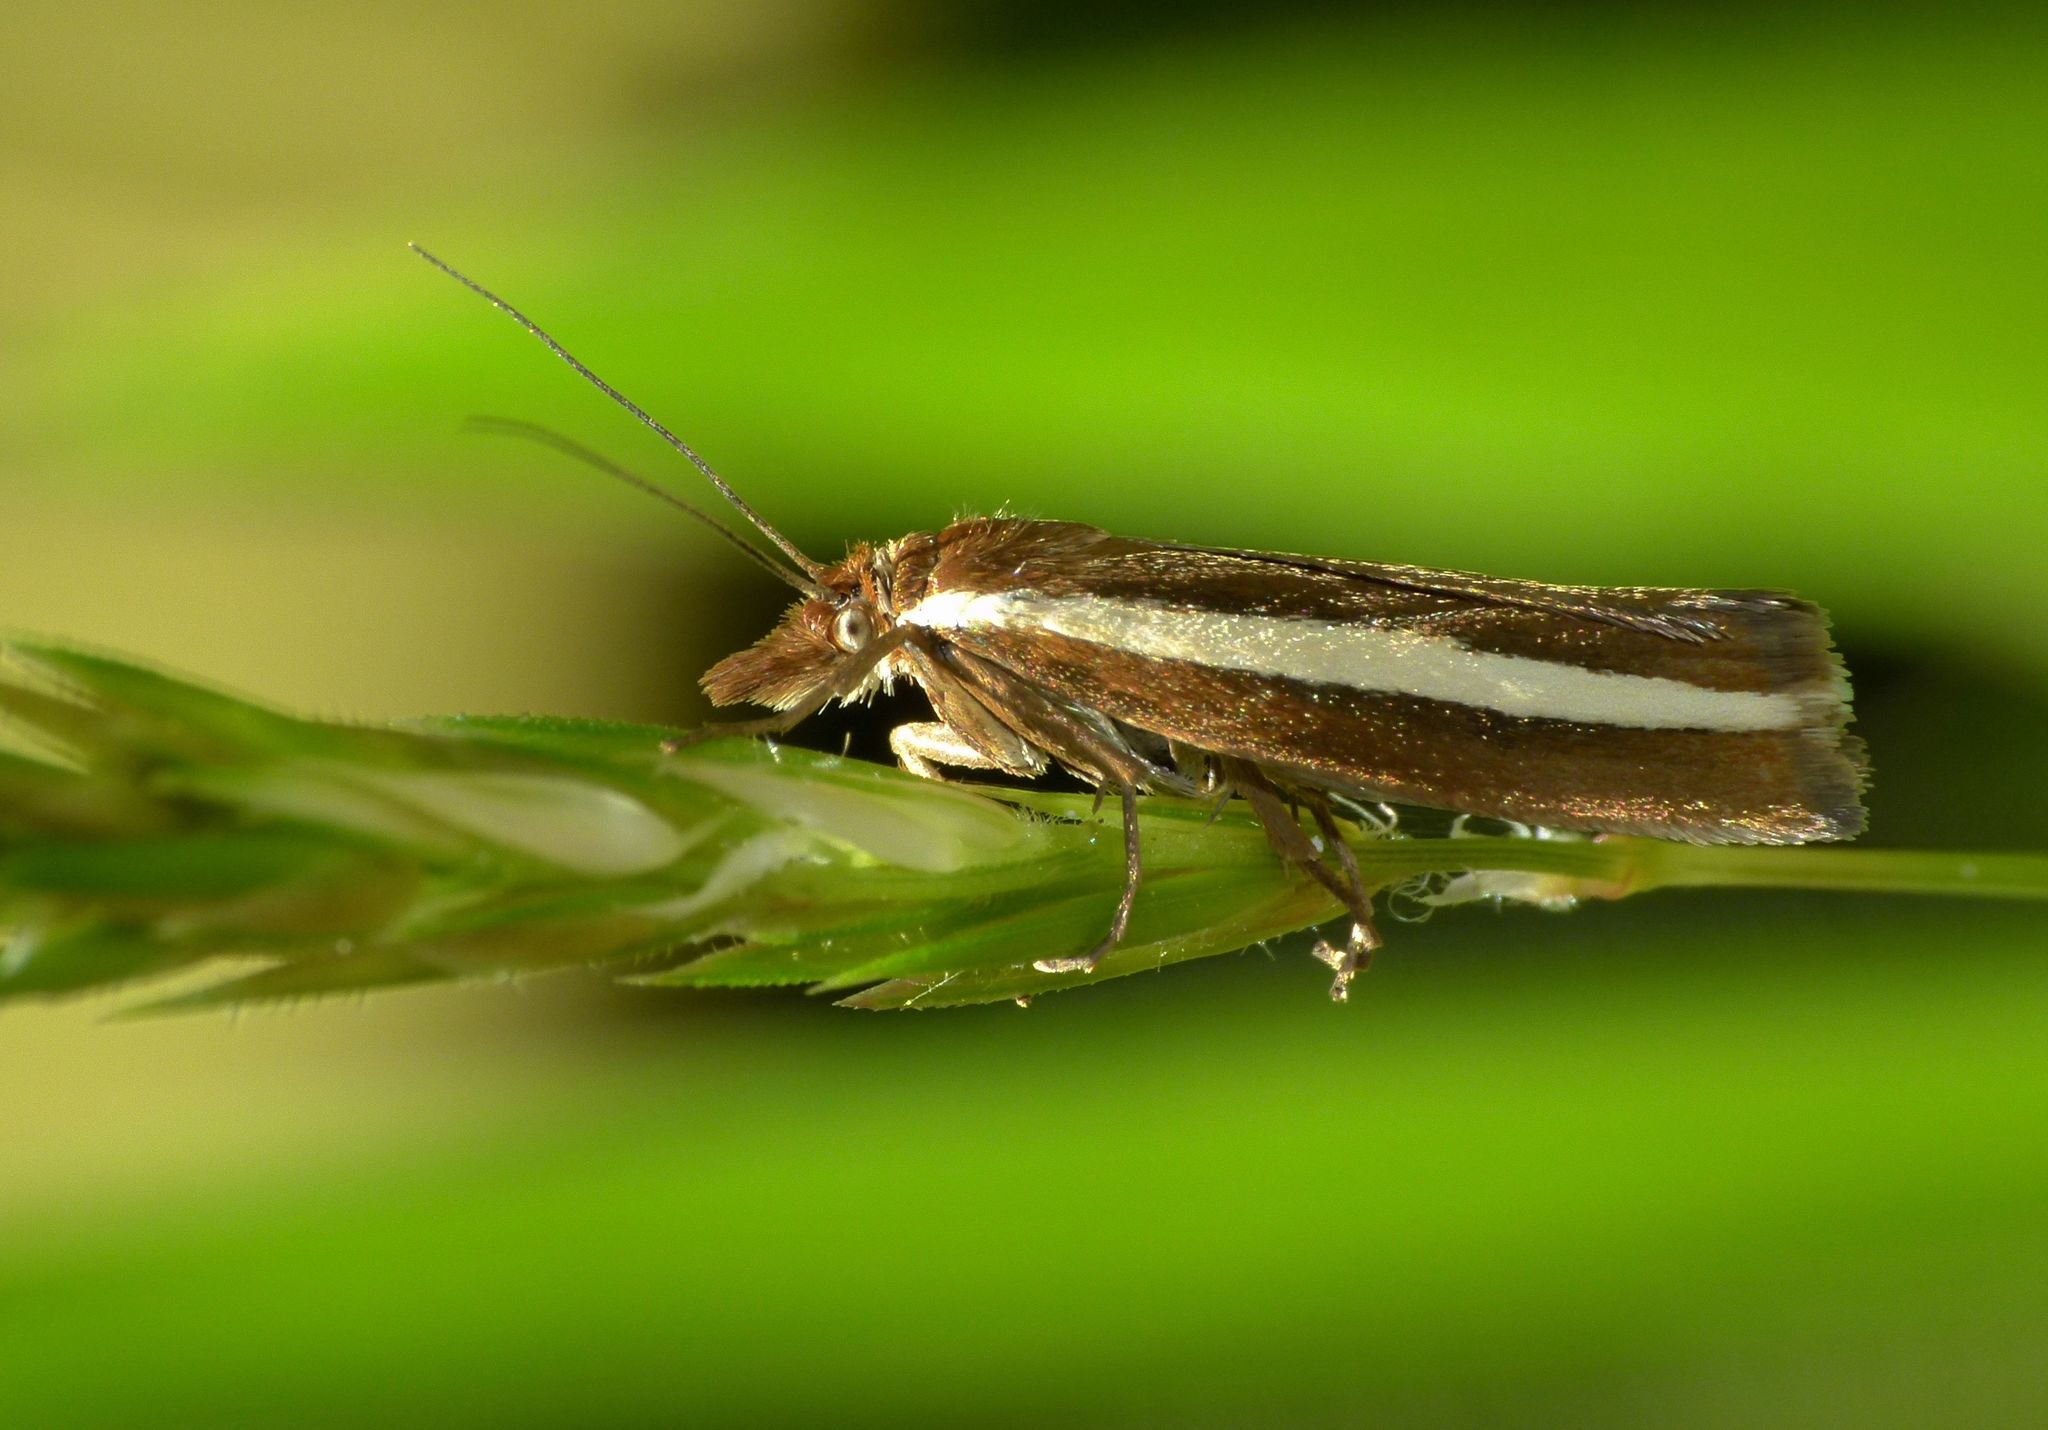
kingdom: Animalia
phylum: Arthropoda
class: Insecta
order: Lepidoptera
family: Crambidae
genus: Orocrambus
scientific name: Orocrambus aethonellus
